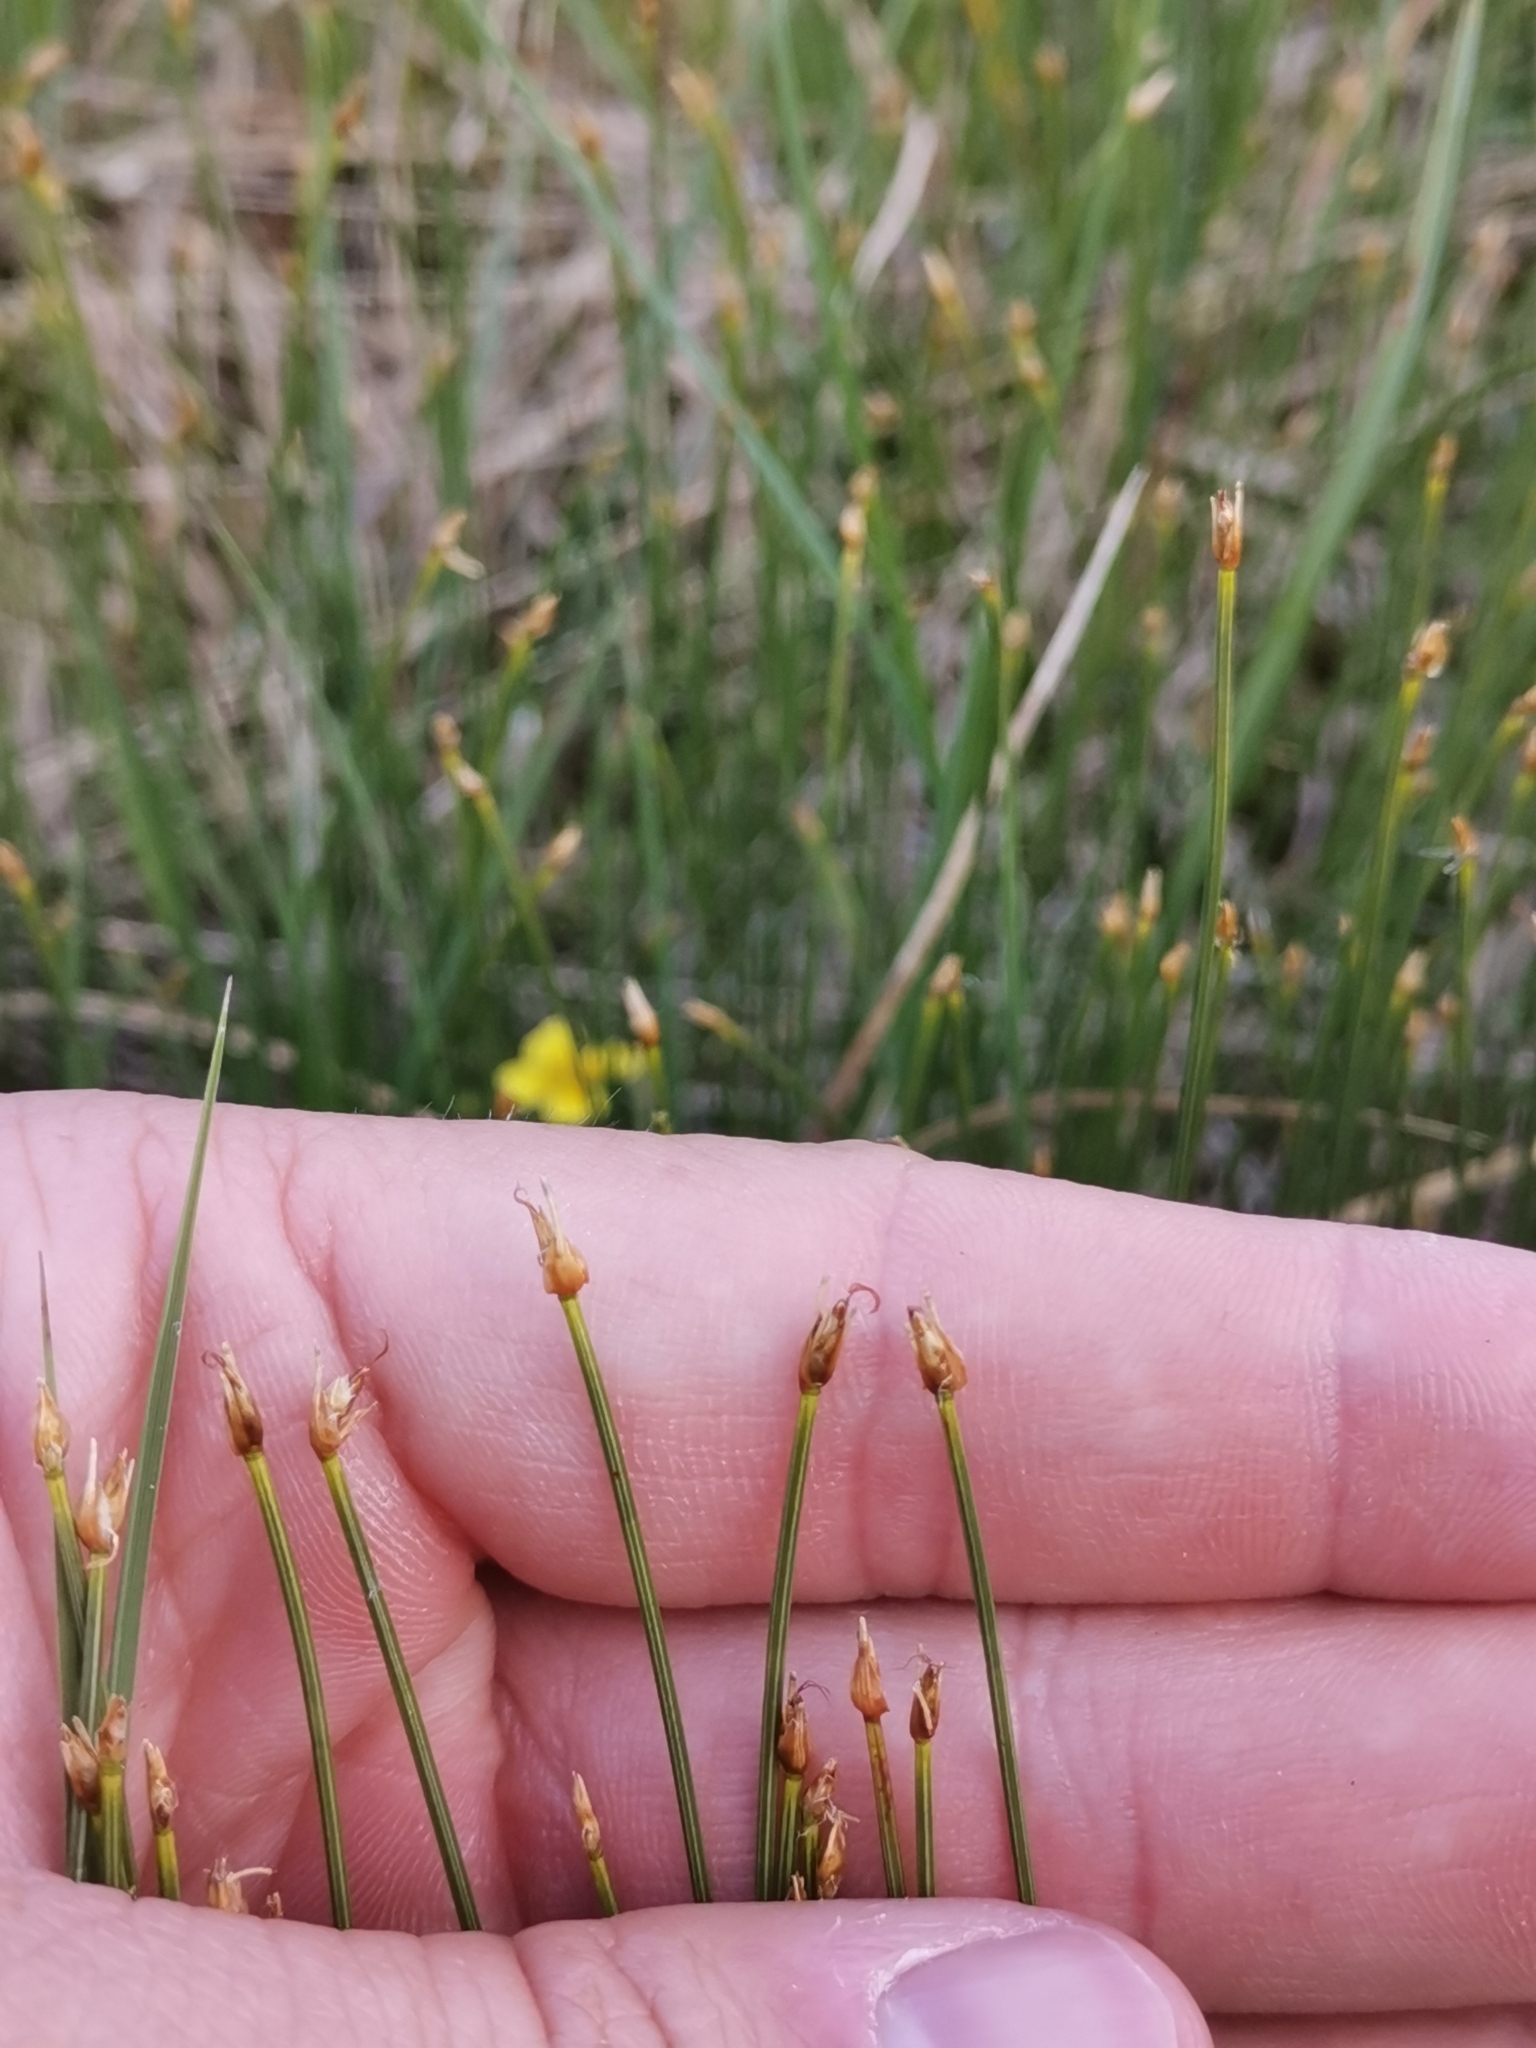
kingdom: Plantae
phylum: Tracheophyta
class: Liliopsida
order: Poales
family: Cyperaceae
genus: Trichophorum
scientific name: Trichophorum alpinum
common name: Alpine bulrush
